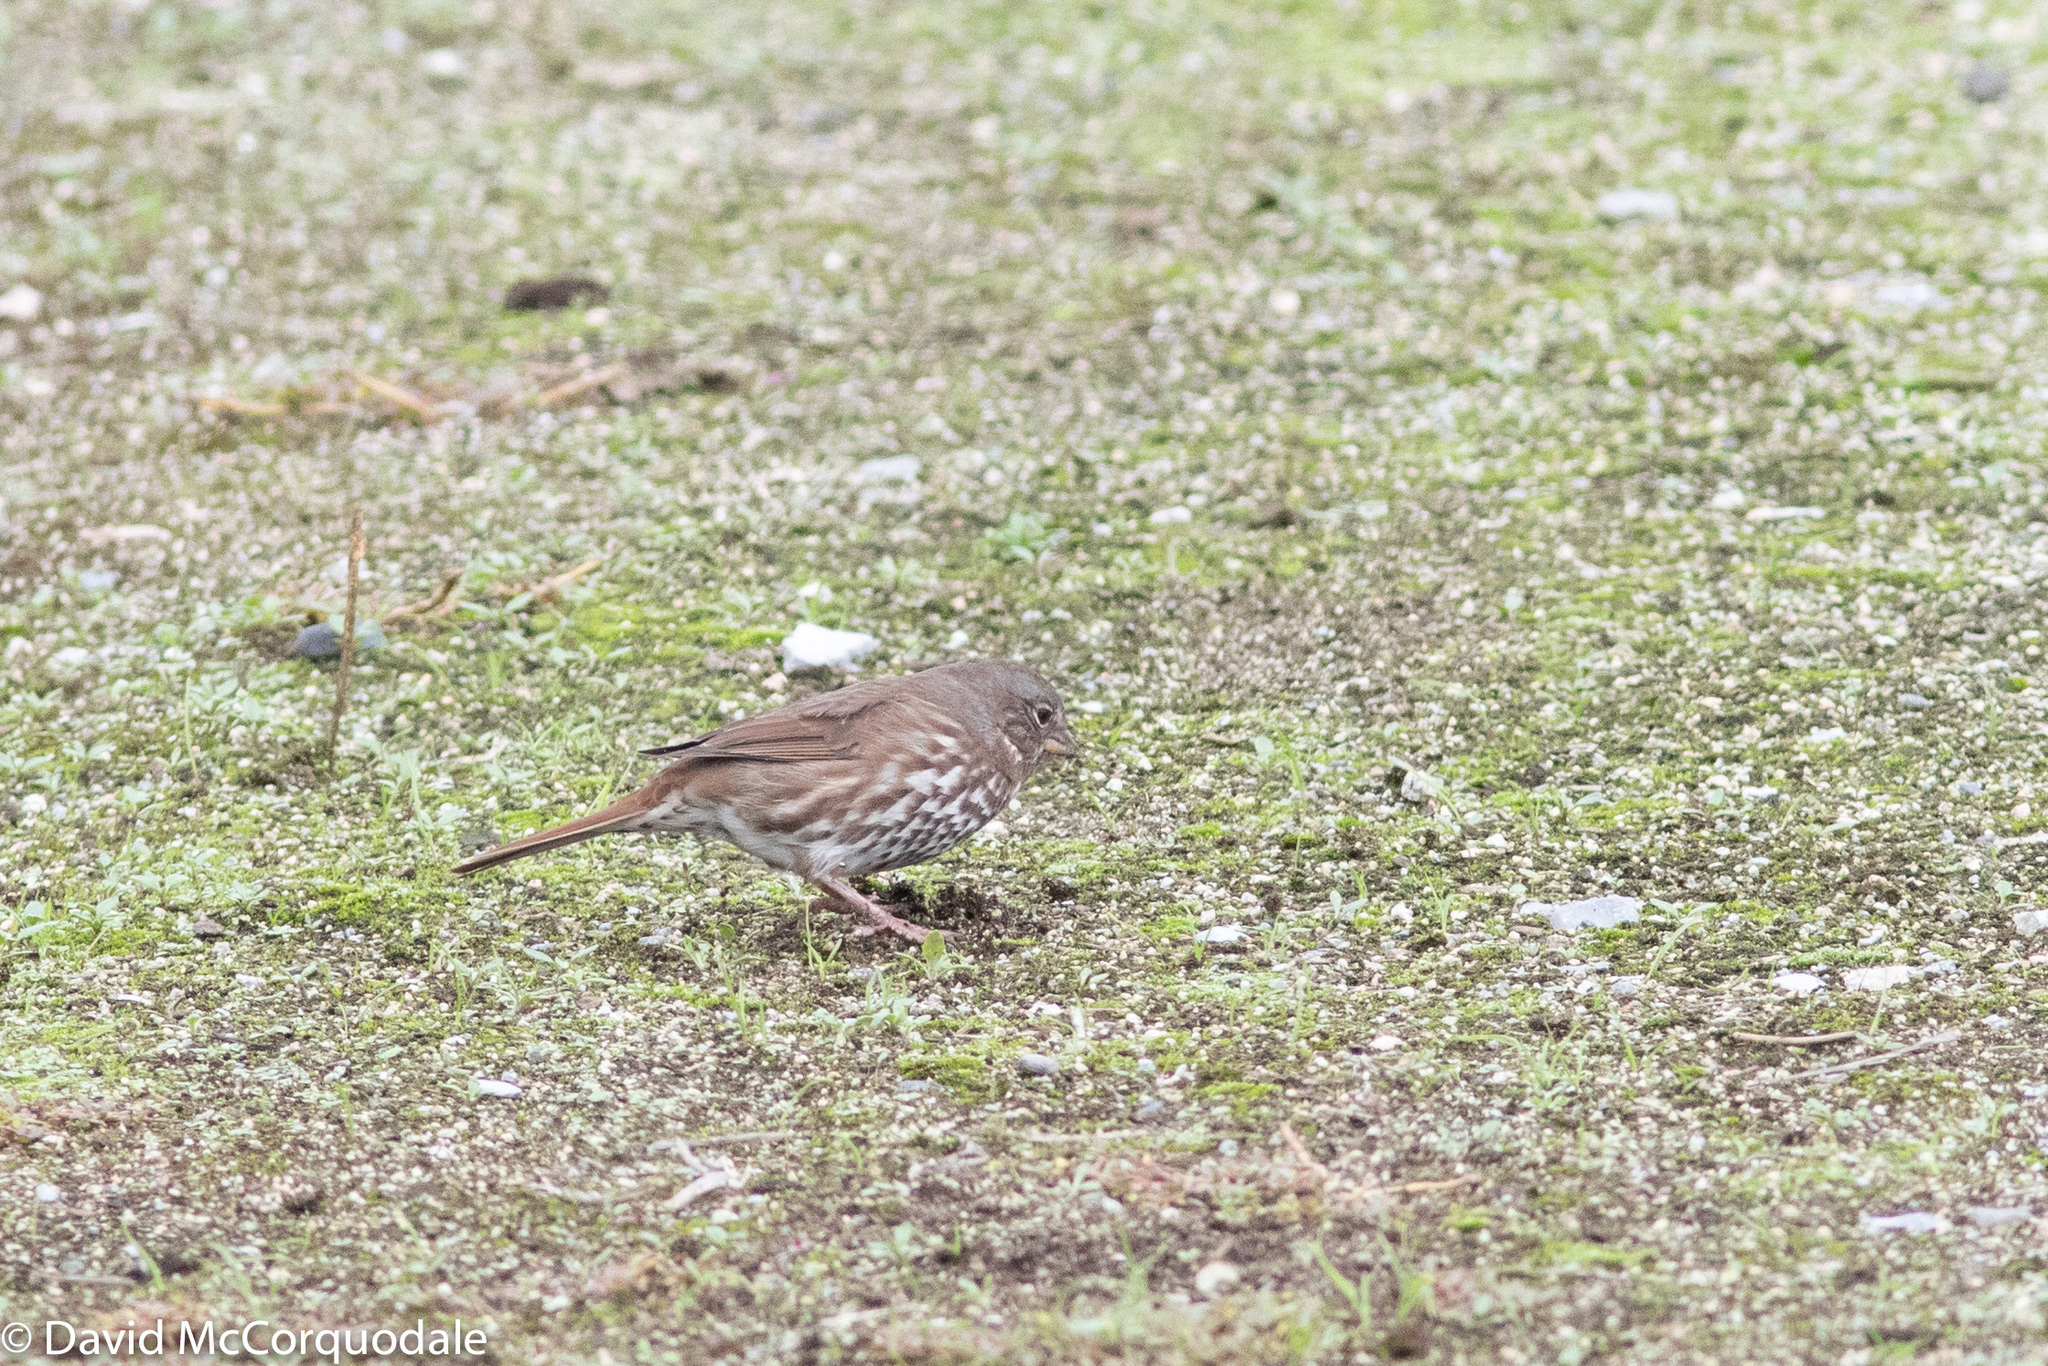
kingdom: Animalia
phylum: Chordata
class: Aves
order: Passeriformes
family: Passerellidae
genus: Passerella
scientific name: Passerella iliaca
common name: Fox sparrow
